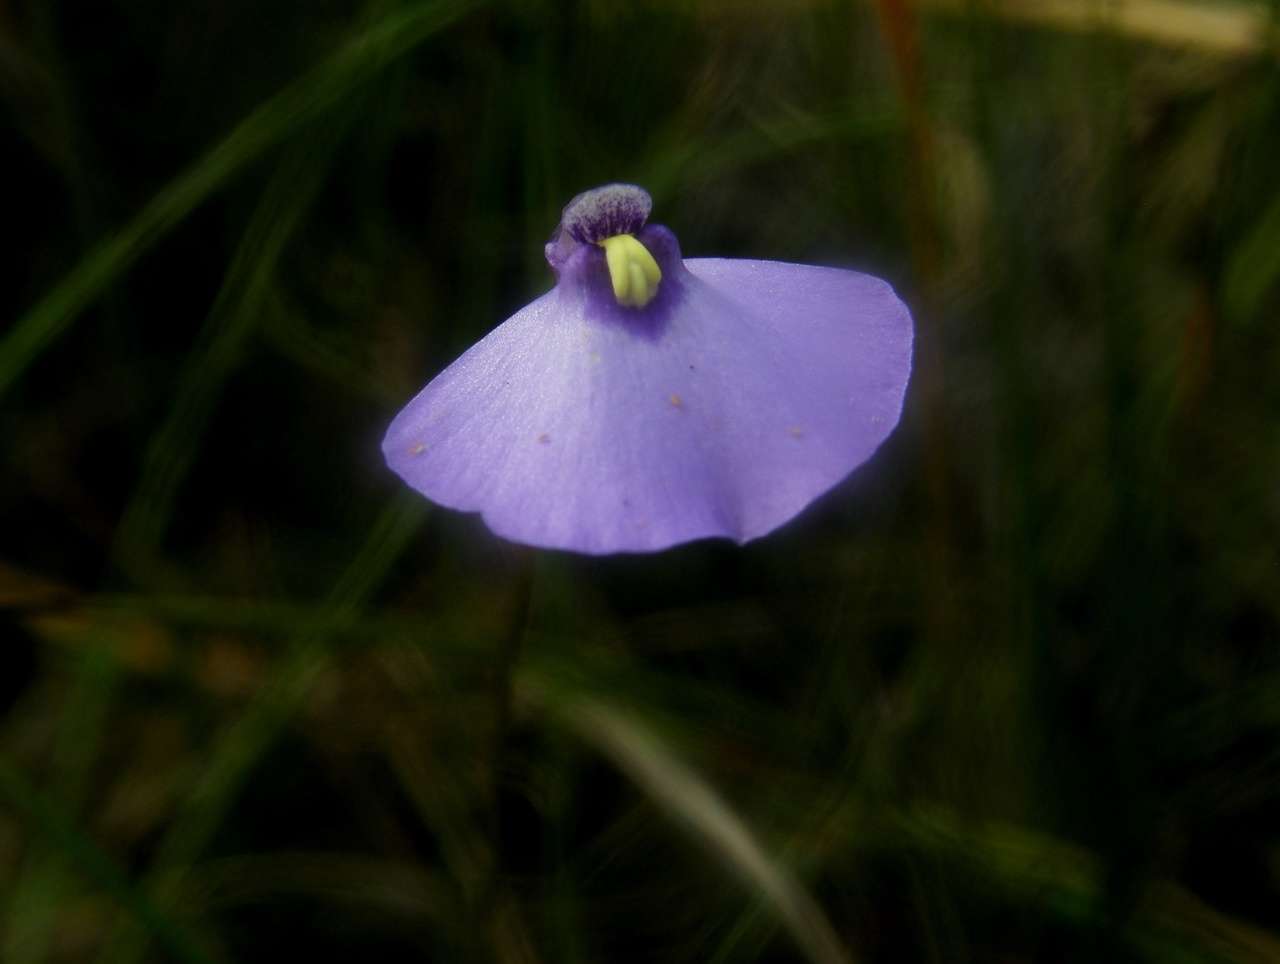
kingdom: Plantae
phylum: Tracheophyta
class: Magnoliopsida
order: Lamiales
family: Lentibulariaceae
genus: Utricularia
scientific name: Utricularia barkeri
